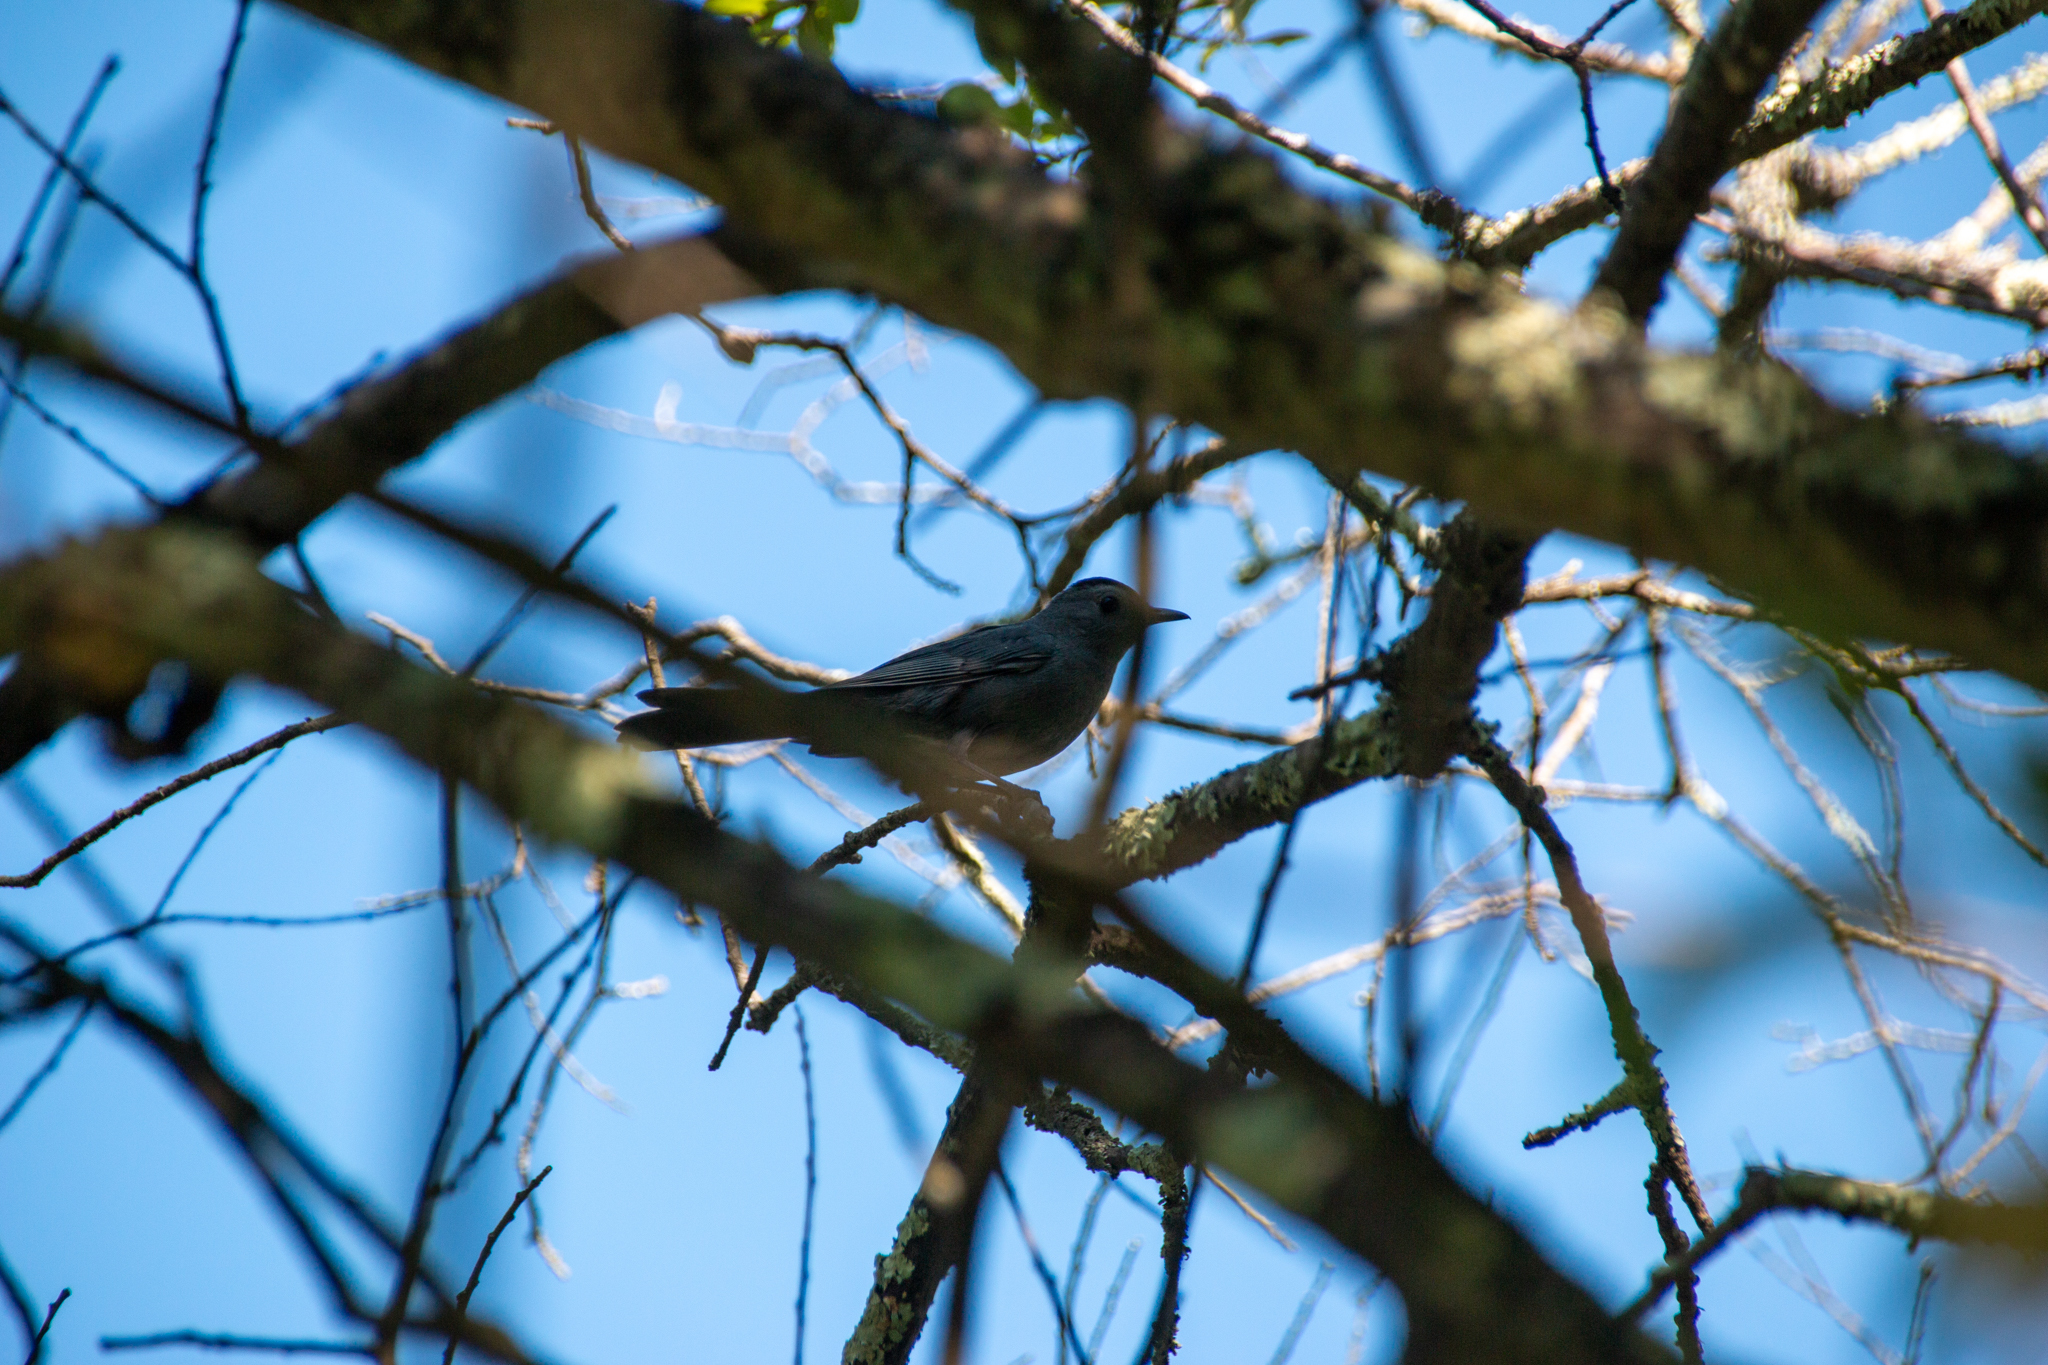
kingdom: Animalia
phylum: Chordata
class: Aves
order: Passeriformes
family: Mimidae
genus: Dumetella
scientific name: Dumetella carolinensis
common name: Gray catbird
